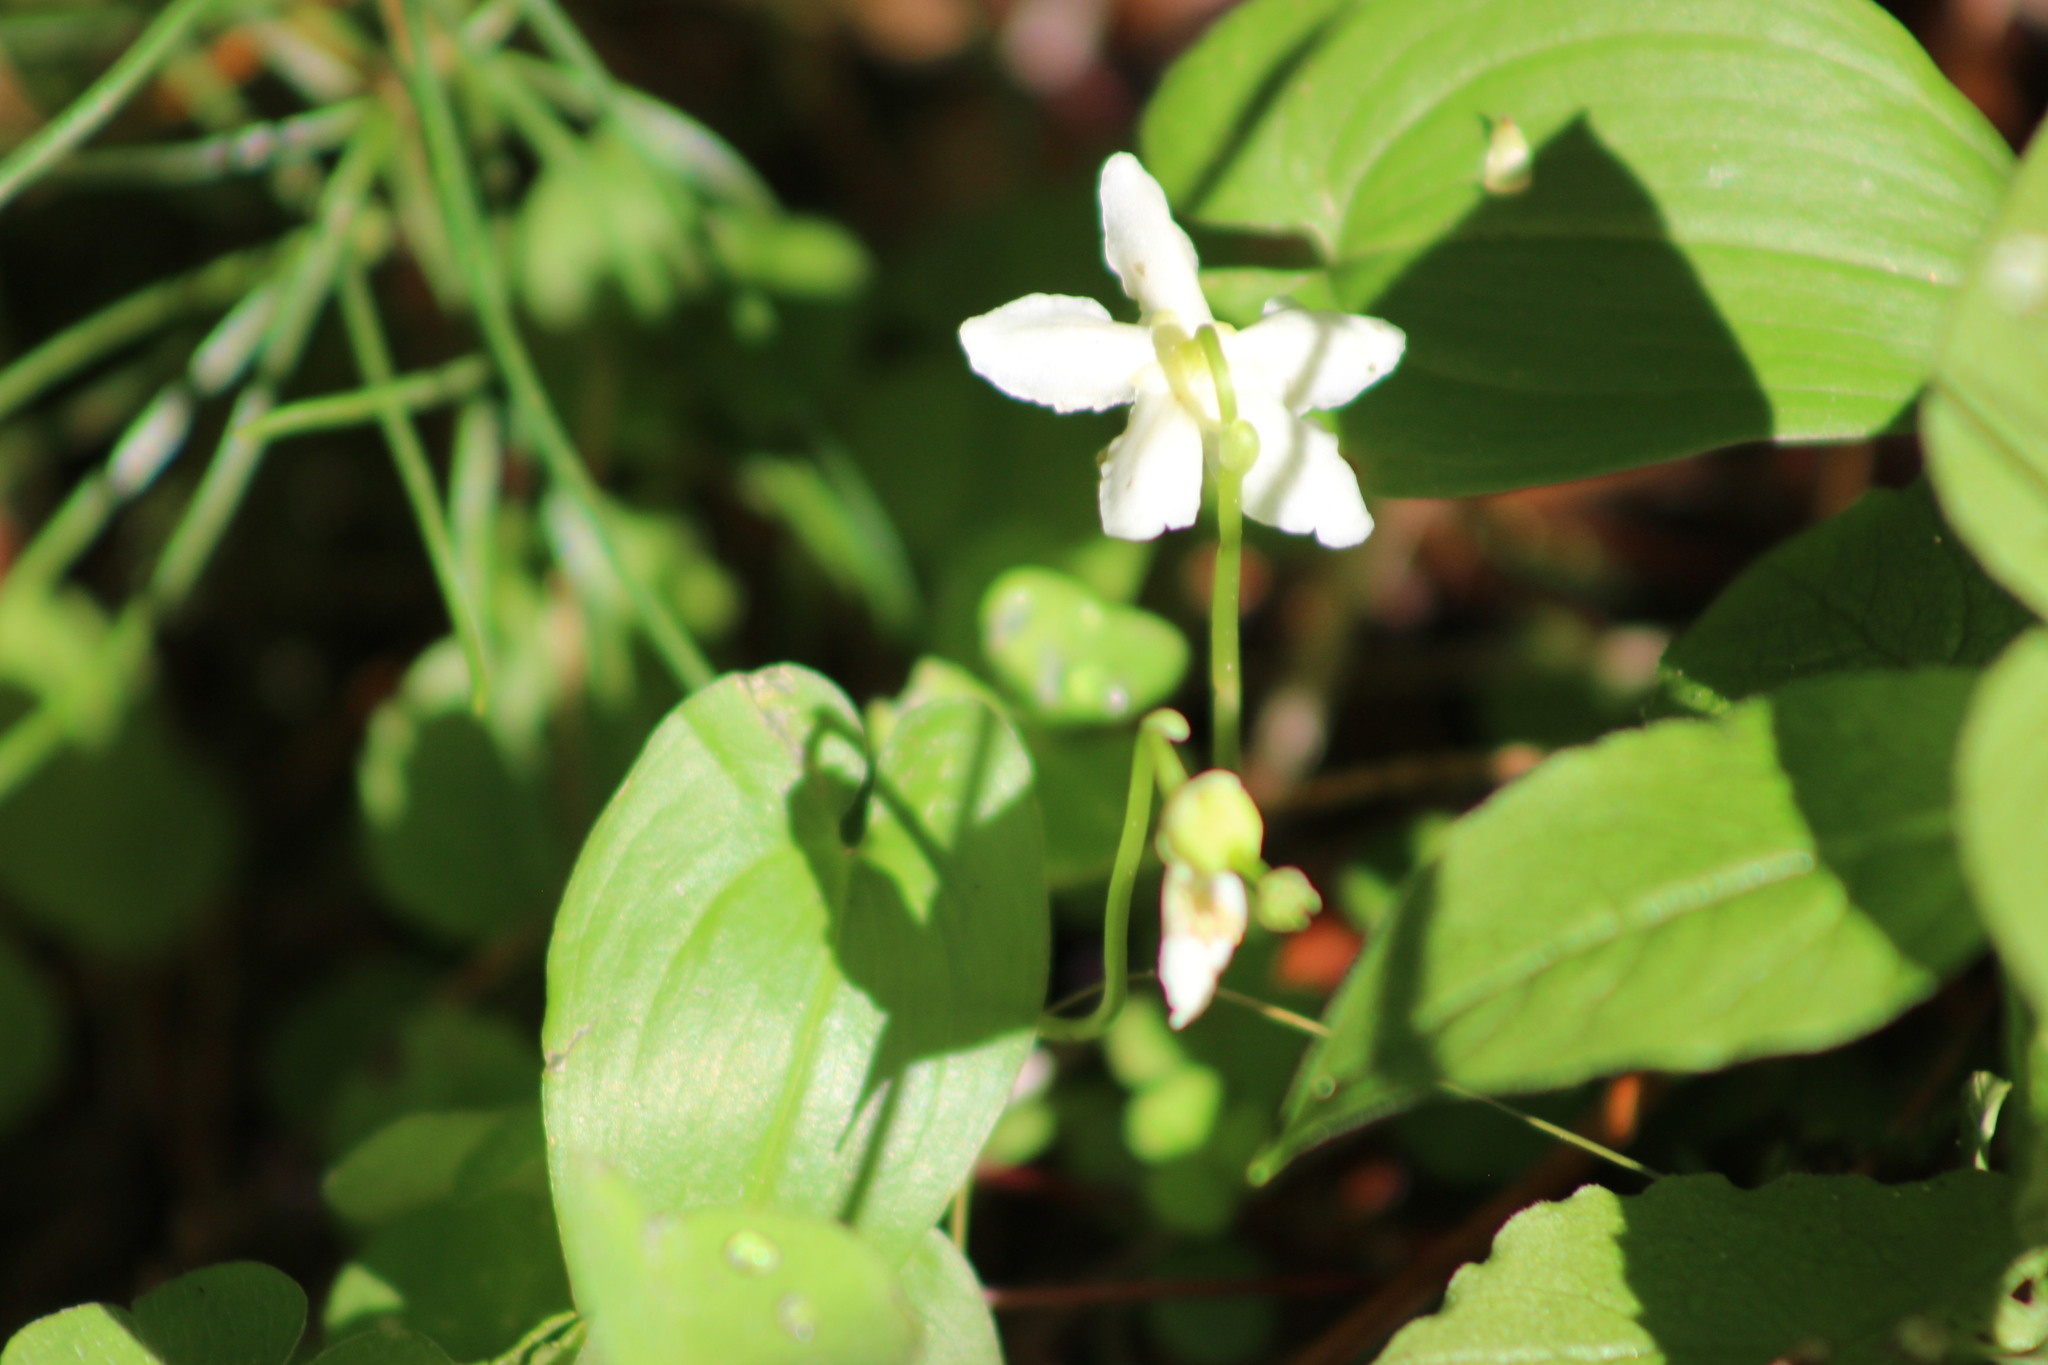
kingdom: Plantae
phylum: Tracheophyta
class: Magnoliopsida
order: Ericales
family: Ericaceae
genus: Moneses
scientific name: Moneses uniflora
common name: One-flowered wintergreen
